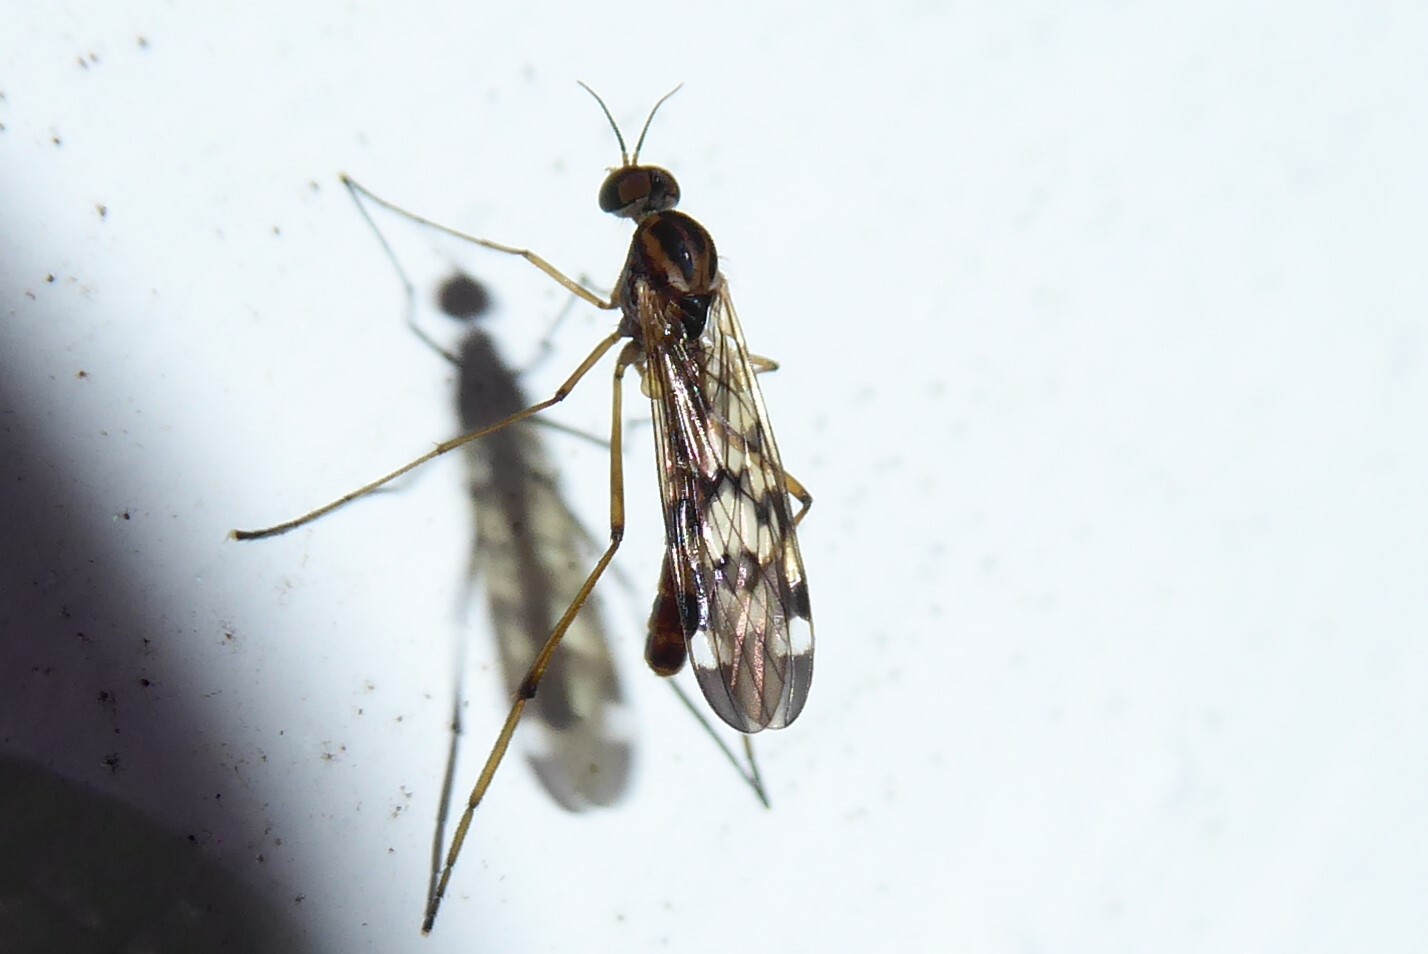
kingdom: Animalia
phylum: Arthropoda
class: Insecta
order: Diptera
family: Anisopodidae
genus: Sylvicola
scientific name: Sylvicola notatus
